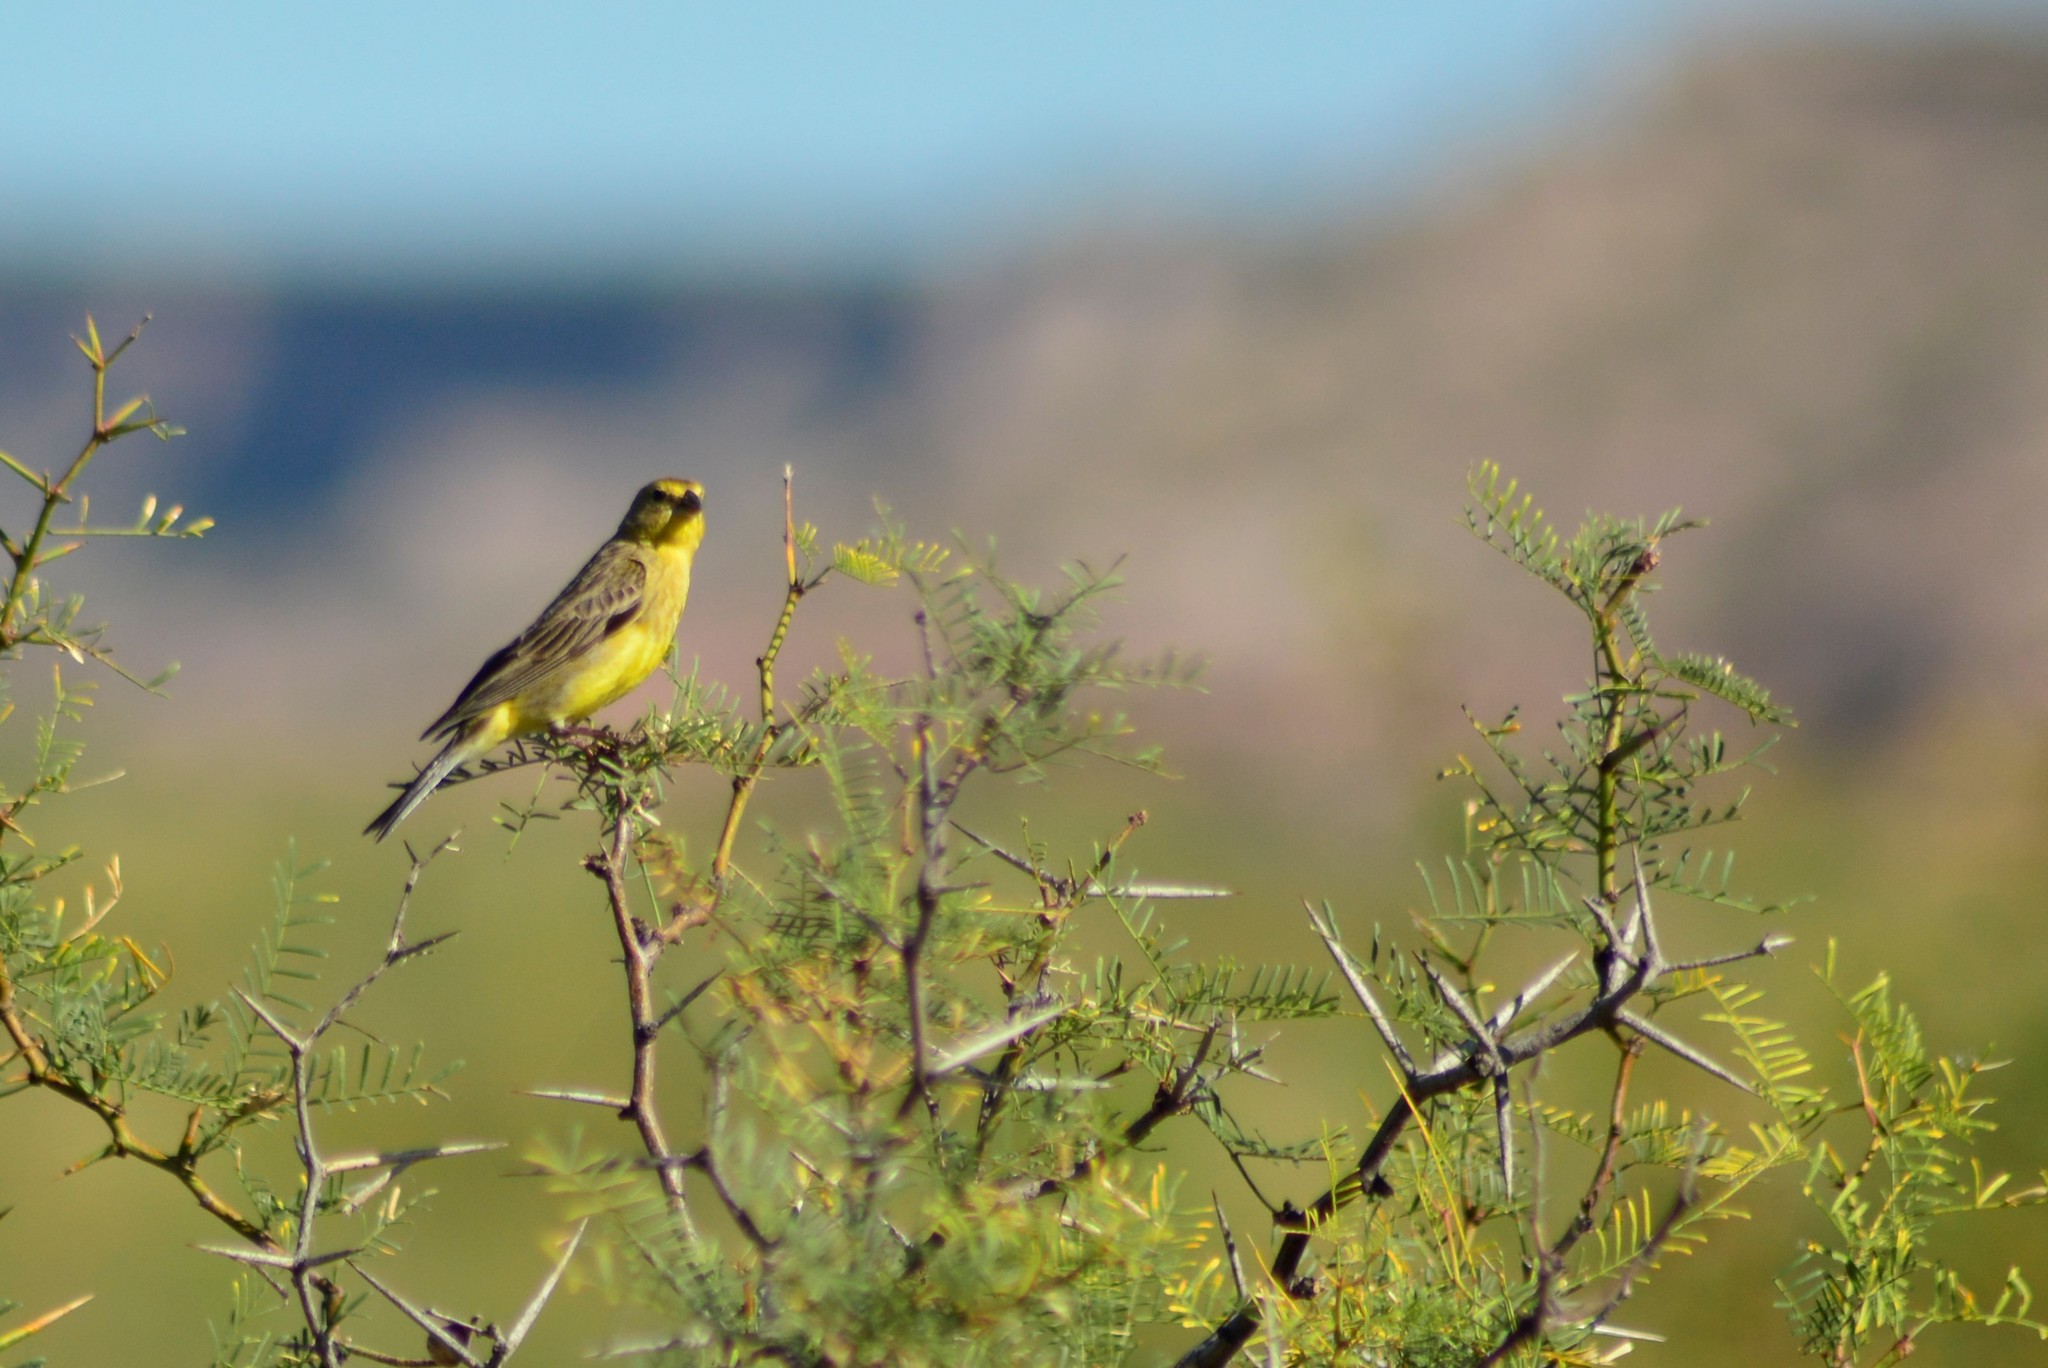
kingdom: Animalia
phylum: Chordata
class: Aves
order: Passeriformes
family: Thraupidae
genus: Sicalis
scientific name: Sicalis luteola
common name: Grassland yellow-finch
